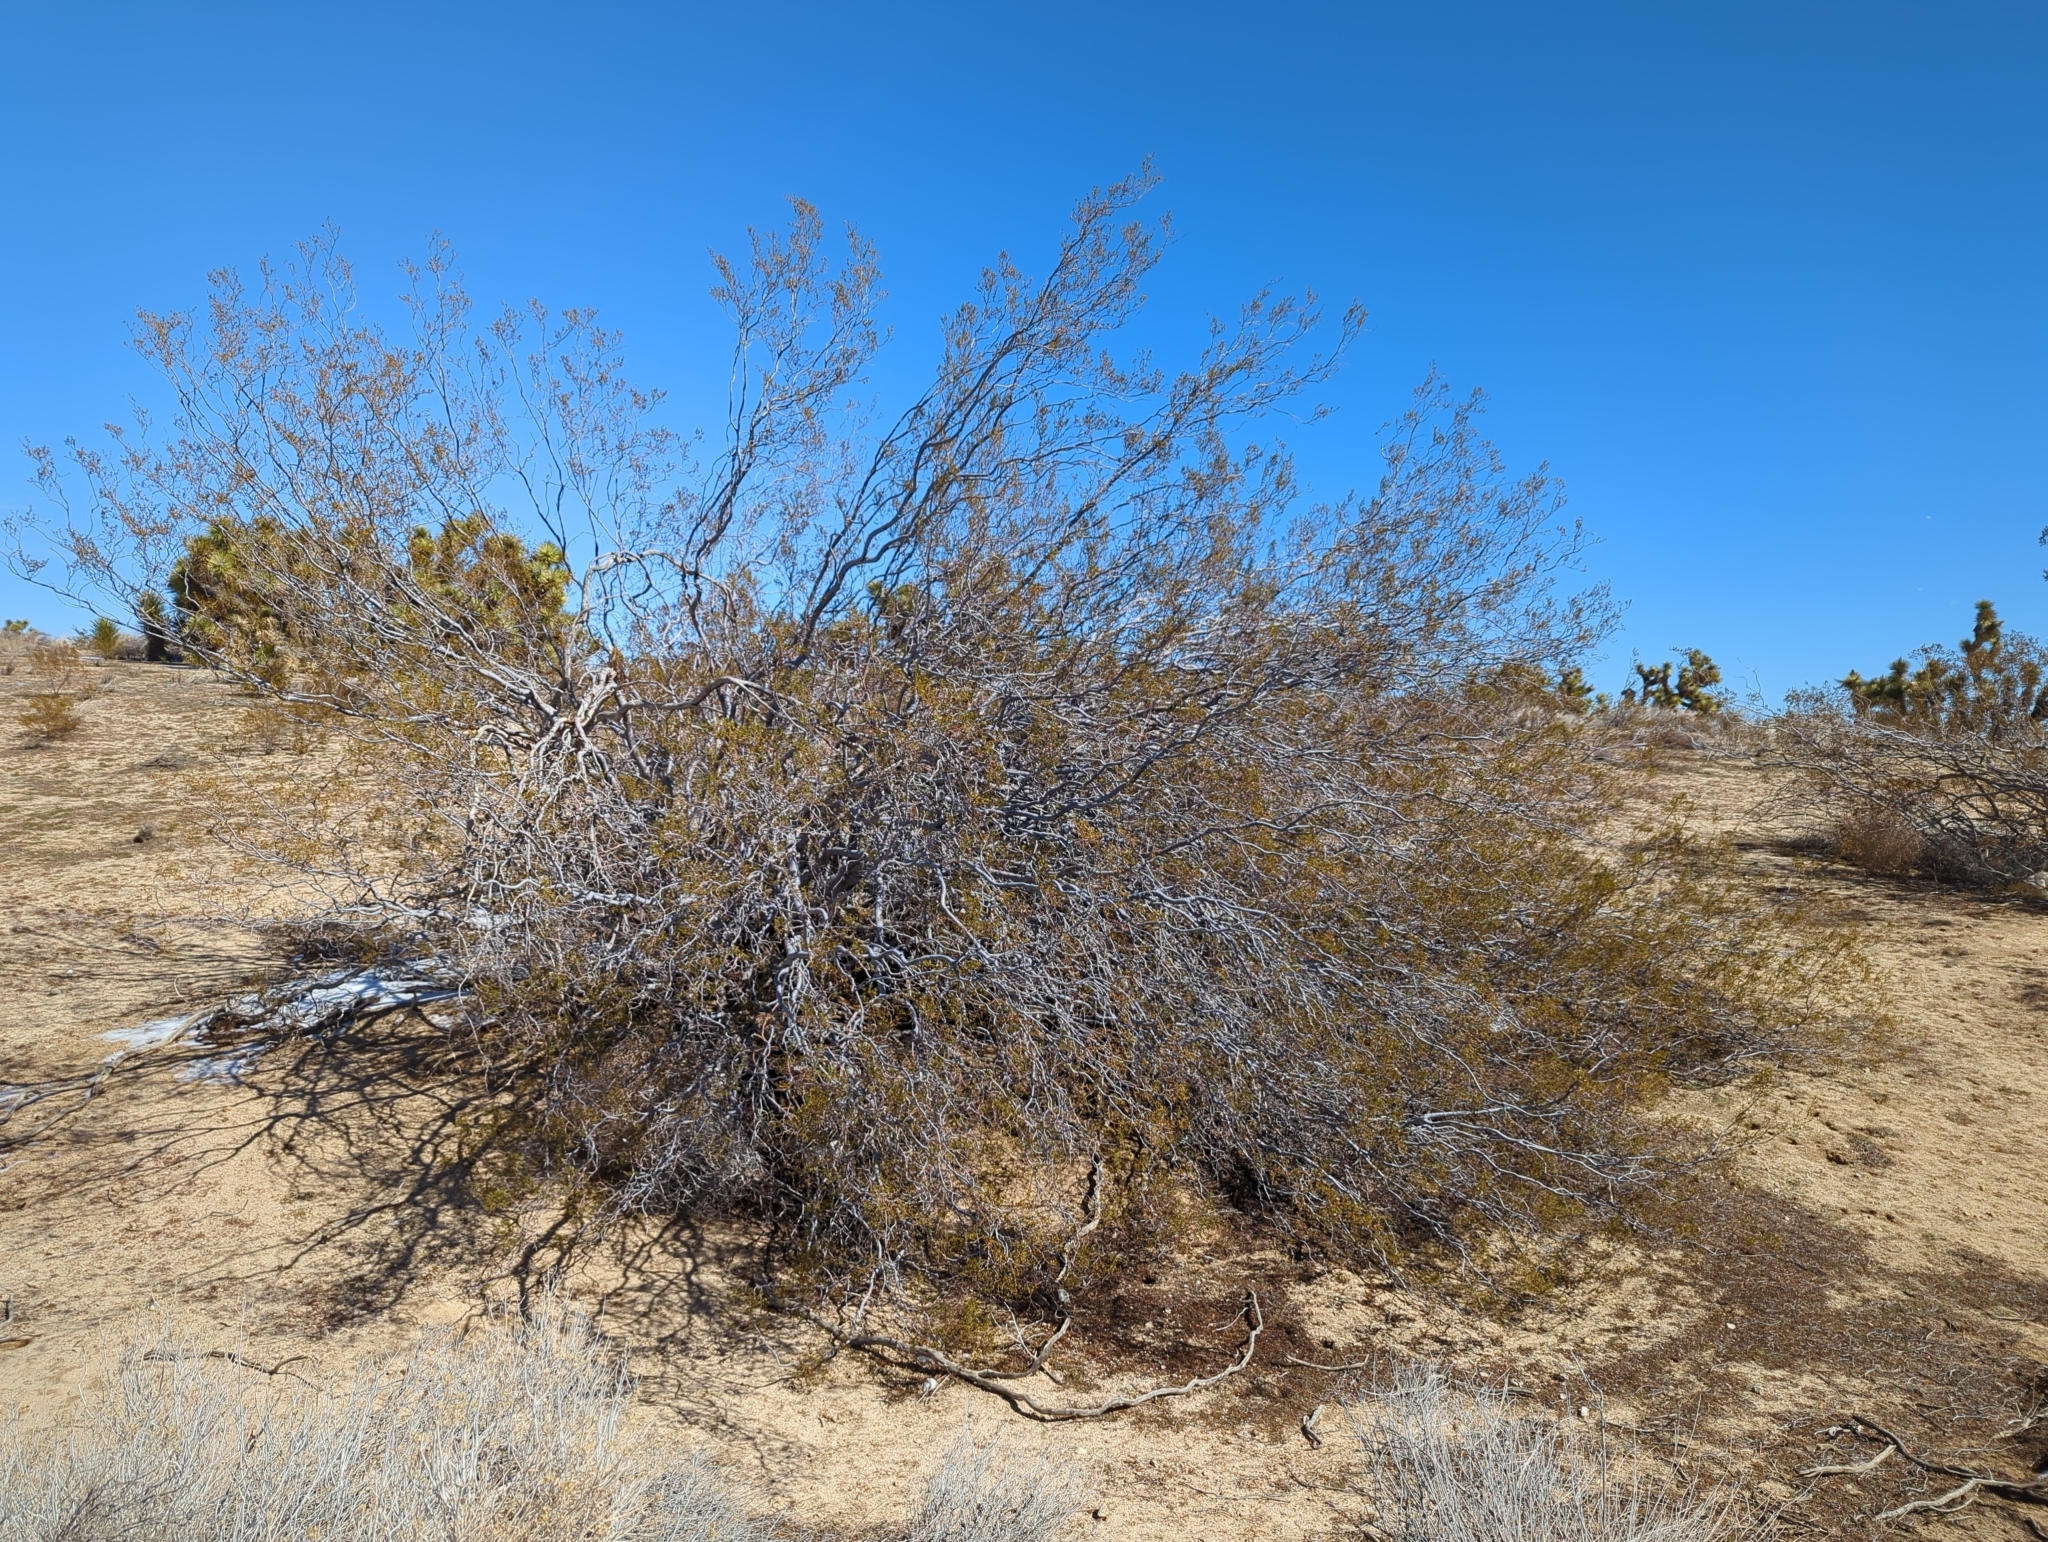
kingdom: Plantae
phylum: Tracheophyta
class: Magnoliopsida
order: Zygophyllales
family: Zygophyllaceae
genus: Larrea
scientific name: Larrea tridentata
